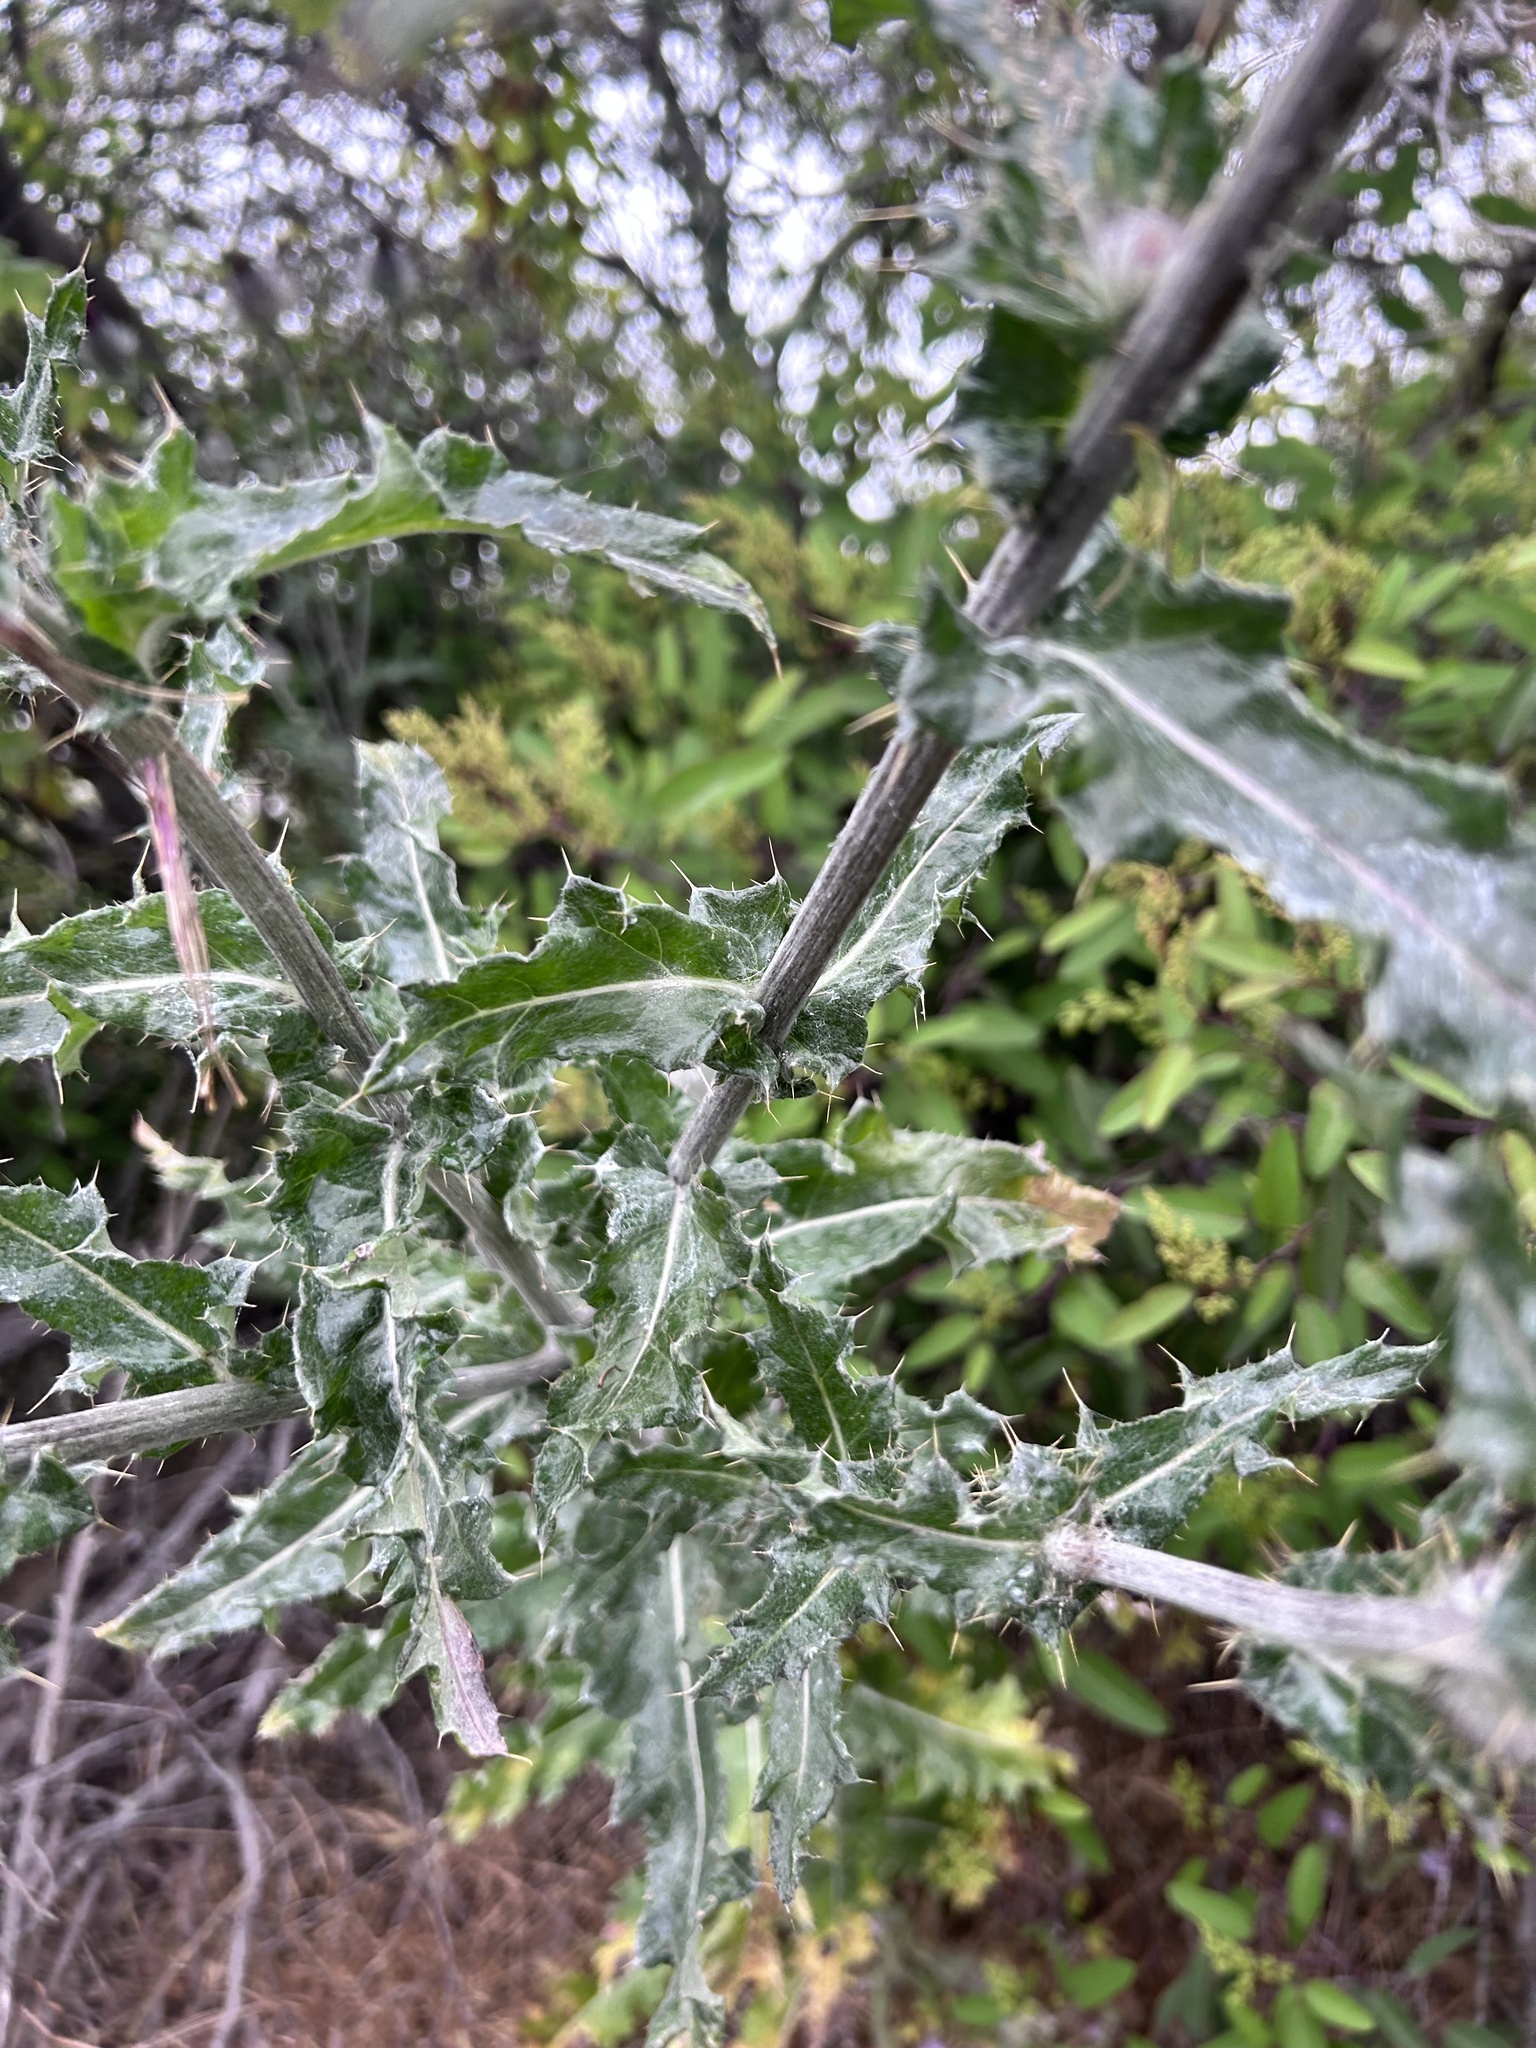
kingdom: Plantae
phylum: Tracheophyta
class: Magnoliopsida
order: Asterales
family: Asteraceae
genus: Cirsium
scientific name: Cirsium occidentale
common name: Western thistle
